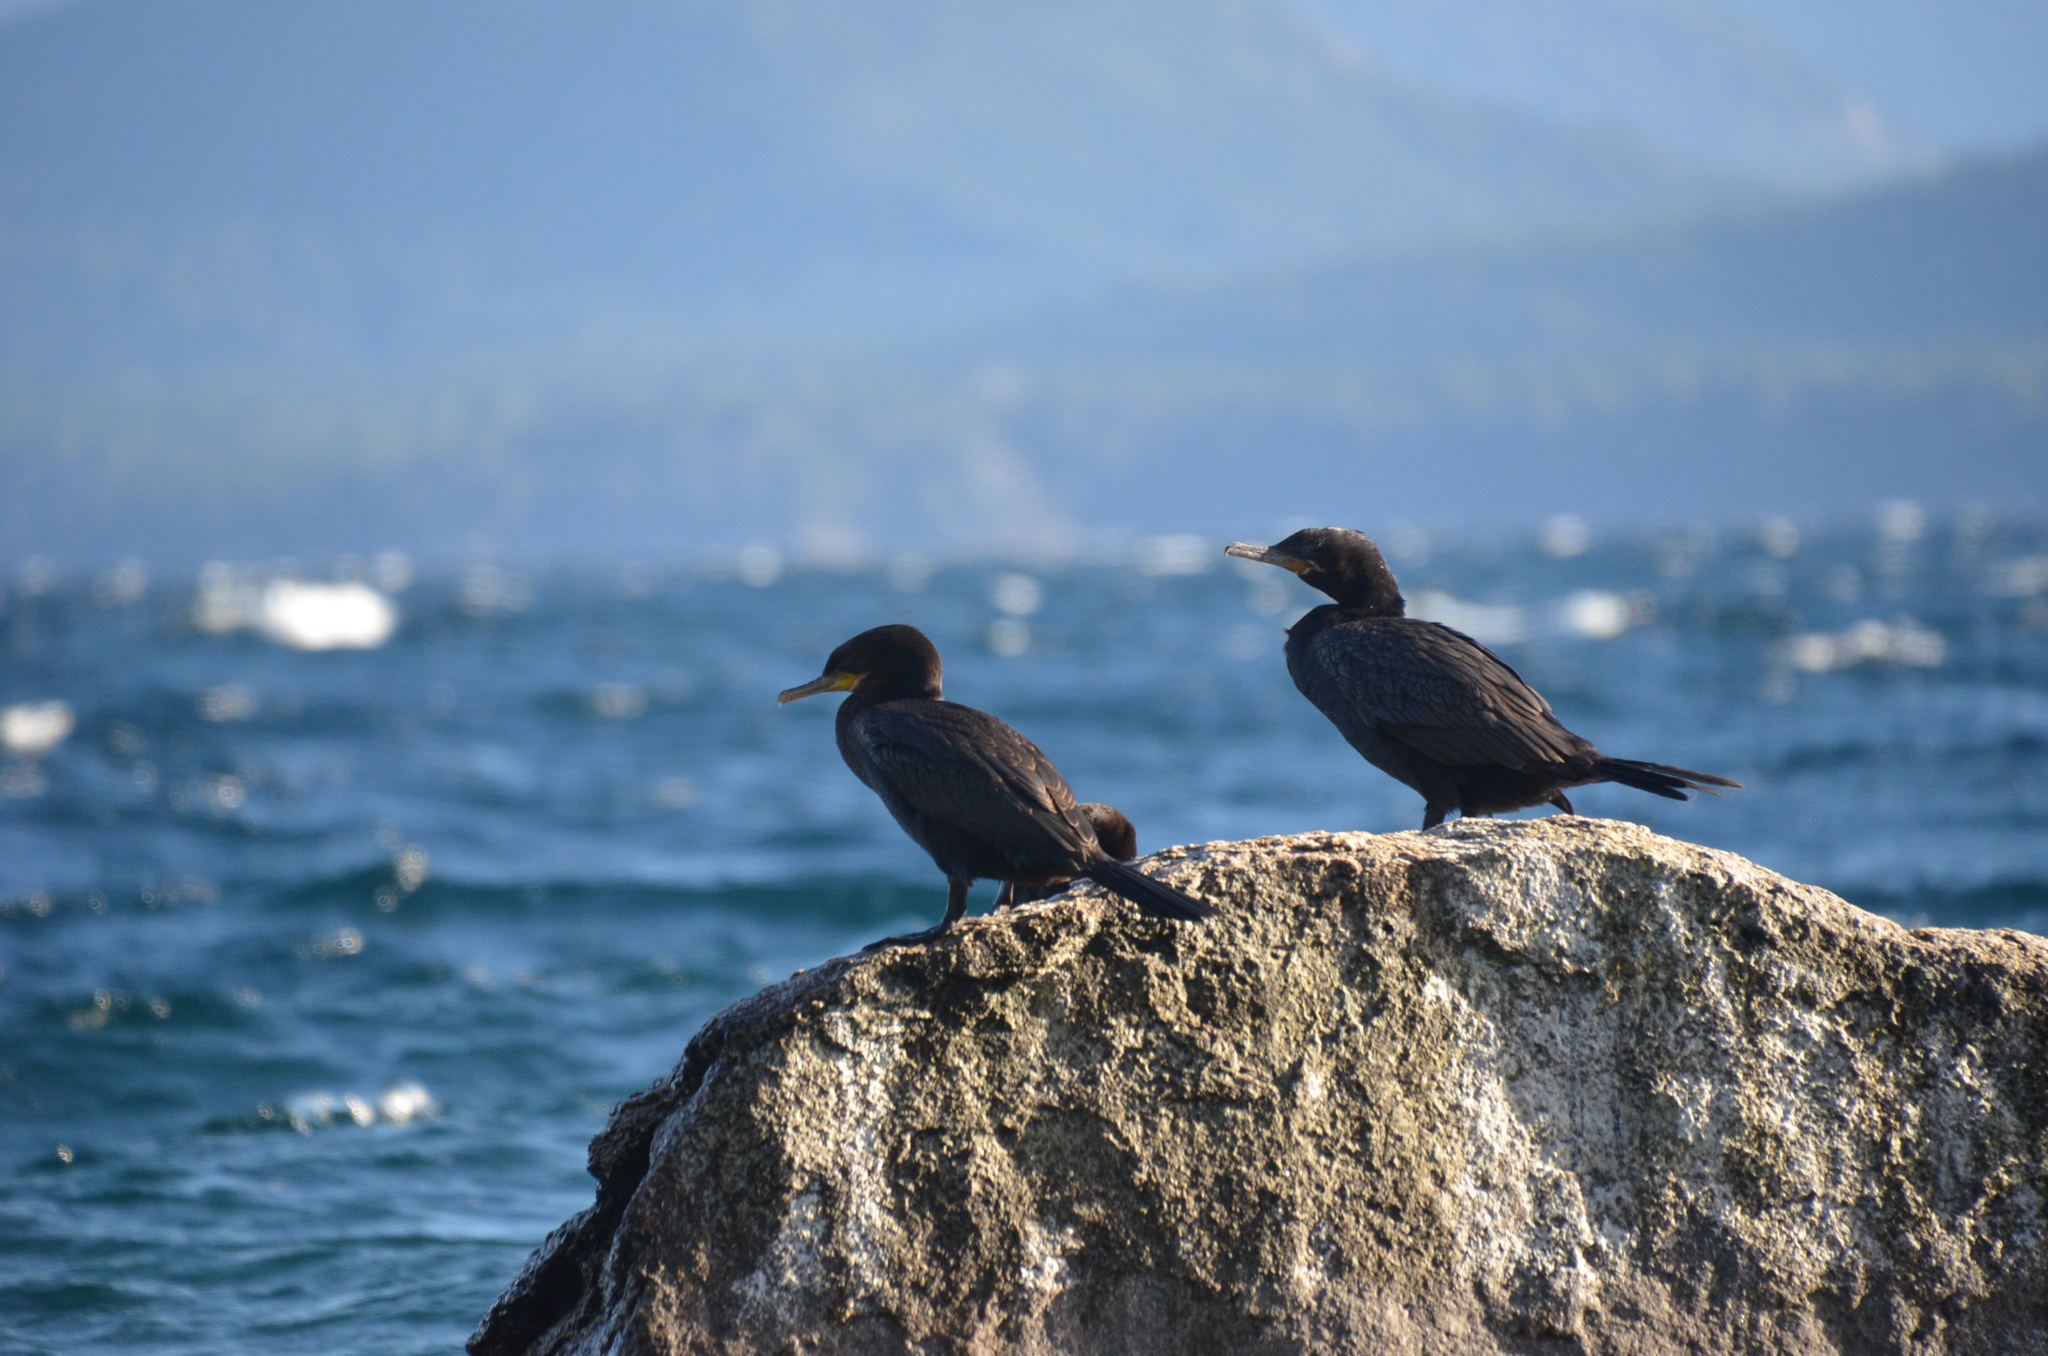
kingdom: Animalia
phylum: Chordata
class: Aves
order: Suliformes
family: Phalacrocoracidae
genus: Phalacrocorax
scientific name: Phalacrocorax brasilianus
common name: Neotropic cormorant
